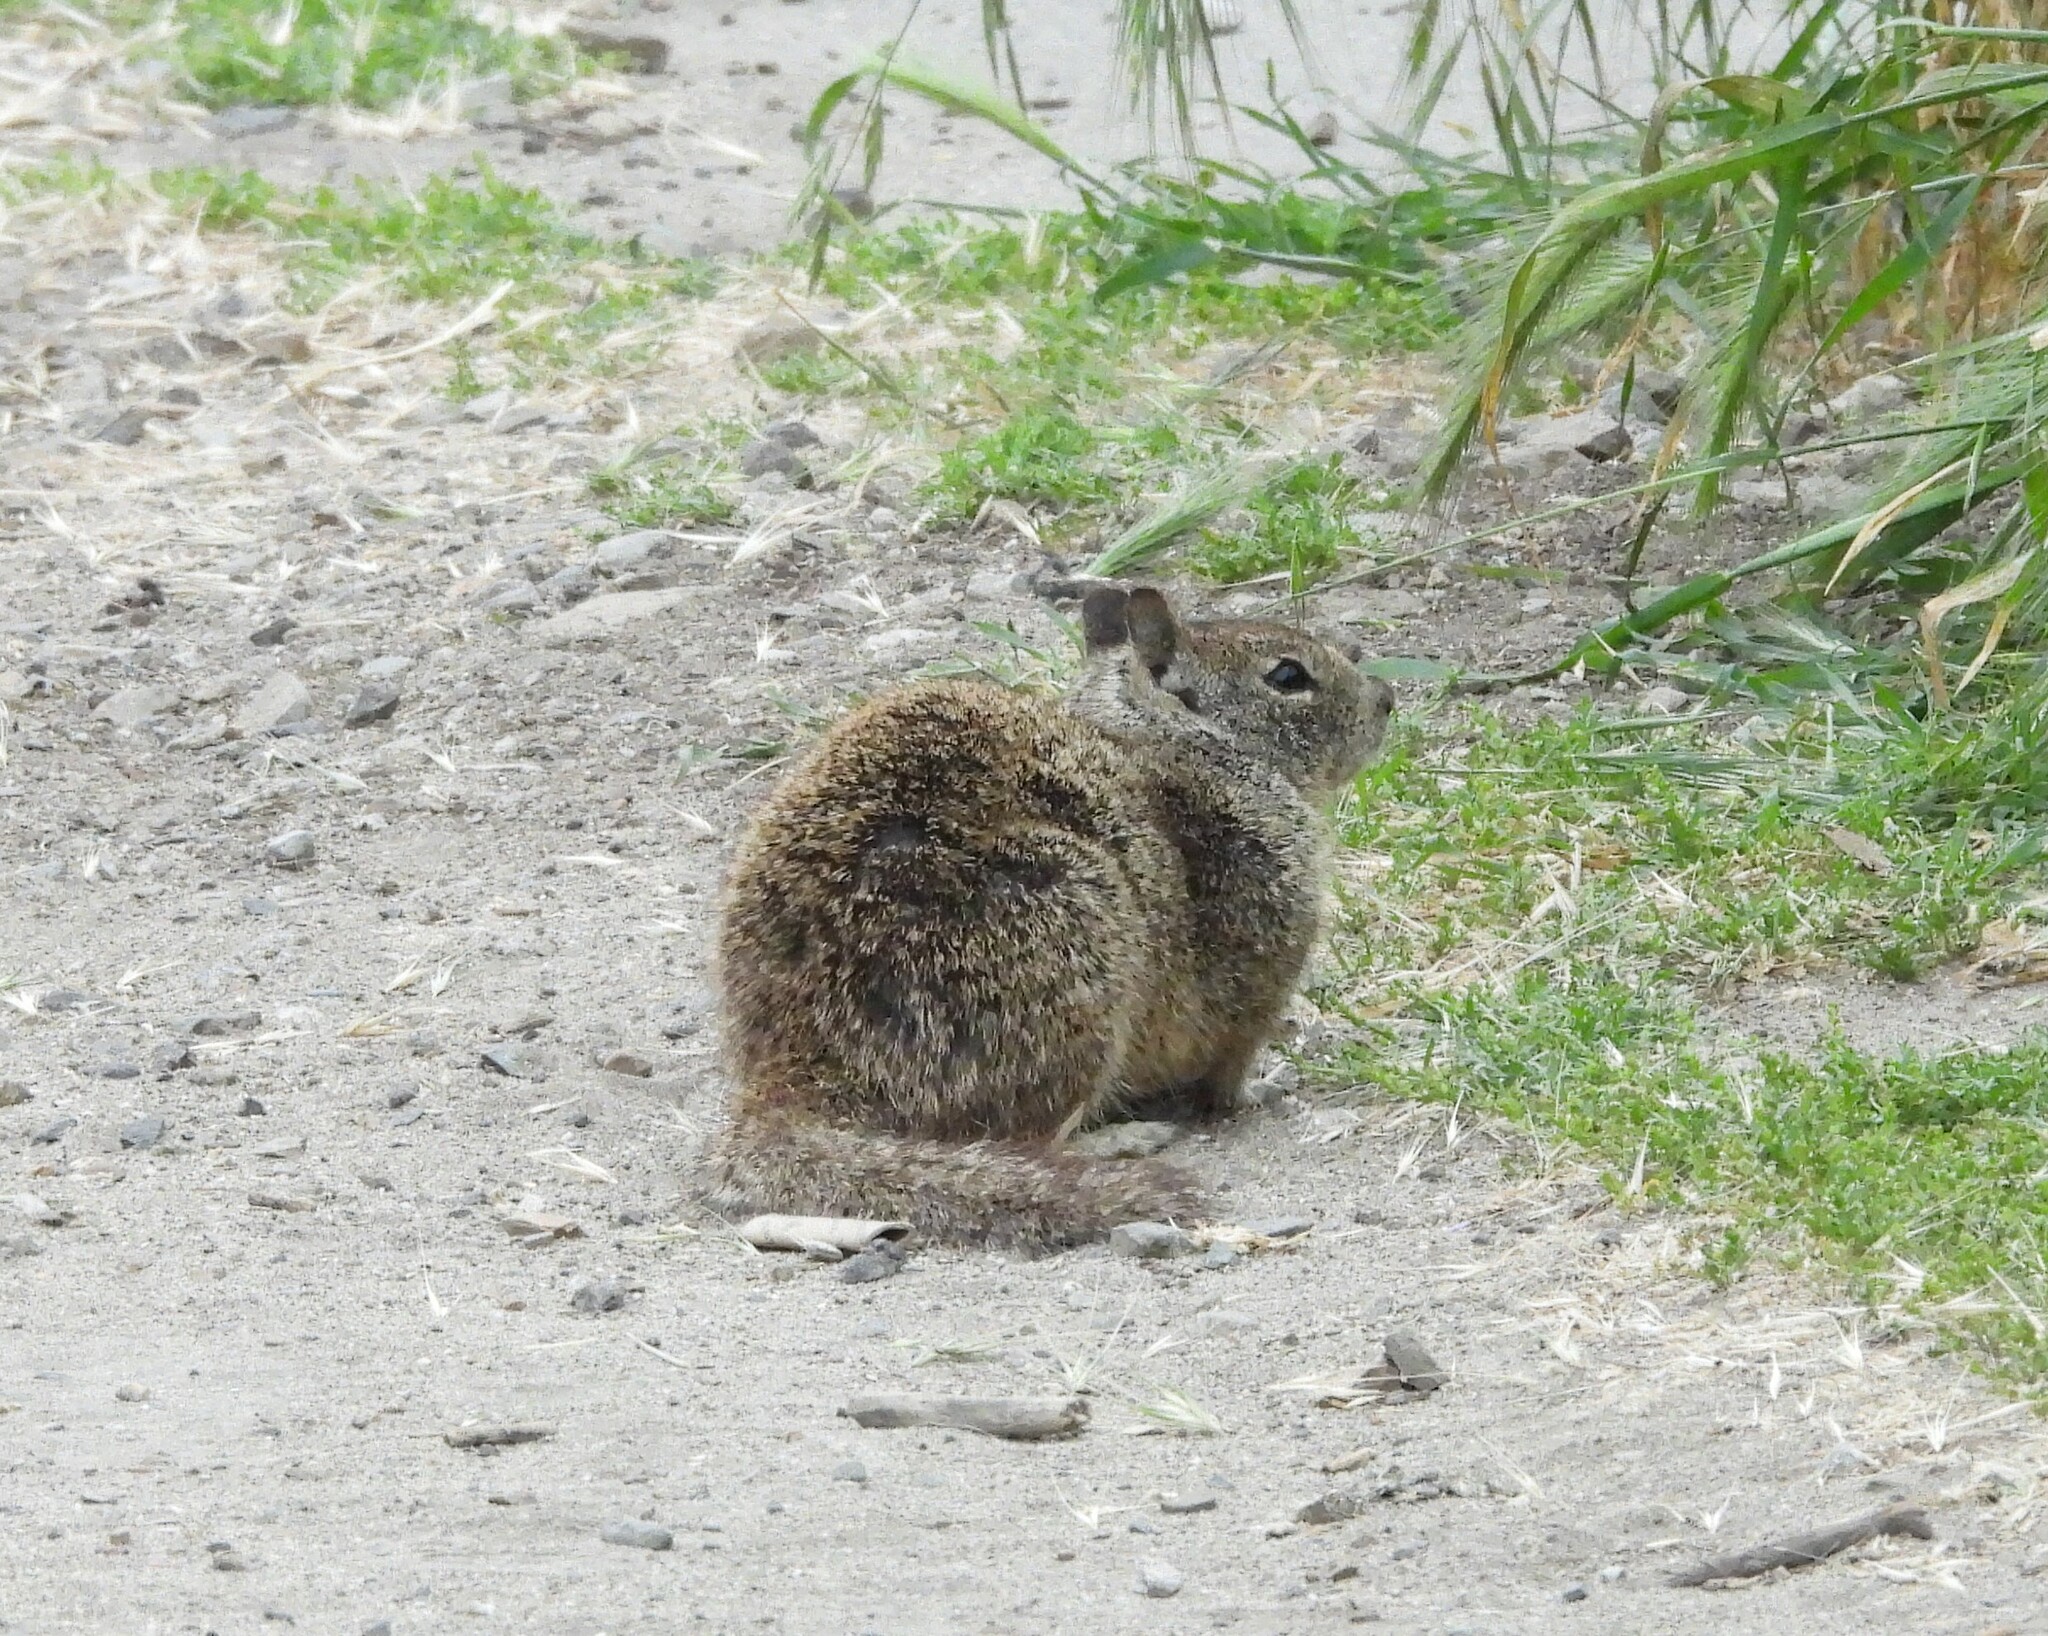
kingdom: Animalia
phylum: Chordata
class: Mammalia
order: Rodentia
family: Sciuridae
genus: Otospermophilus
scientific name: Otospermophilus beecheyi
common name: California ground squirrel
